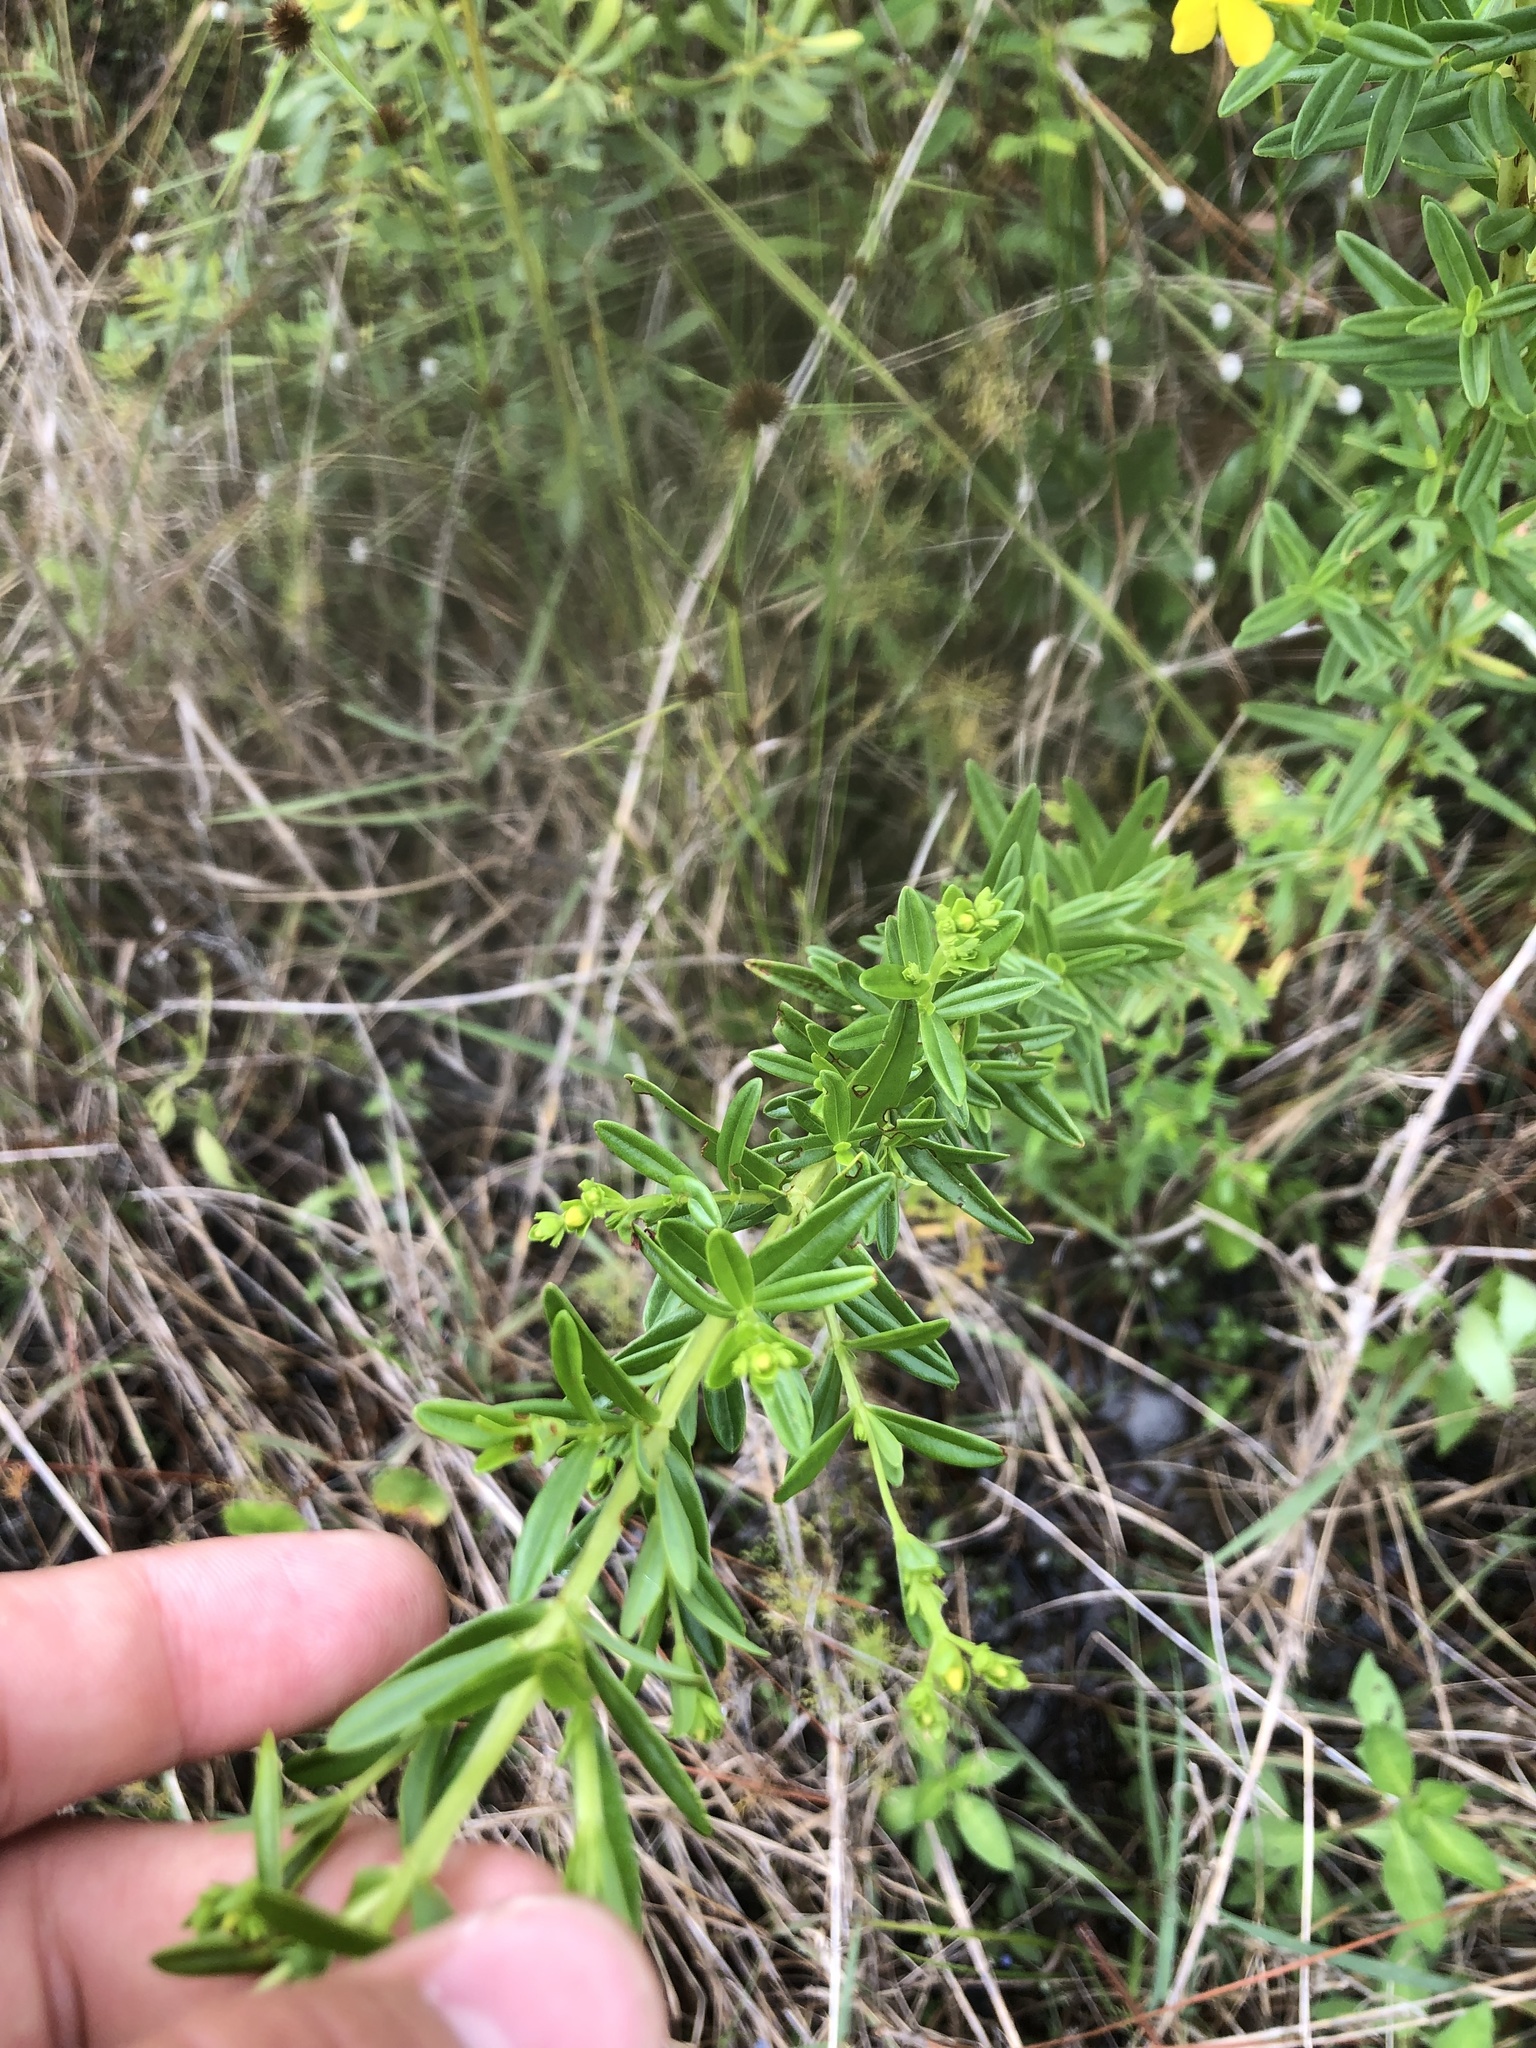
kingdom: Plantae
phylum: Tracheophyta
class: Magnoliopsida
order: Malpighiales
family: Hypericaceae
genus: Hypericum
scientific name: Hypericum cistifolium
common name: Round-pod st. john's-wort
